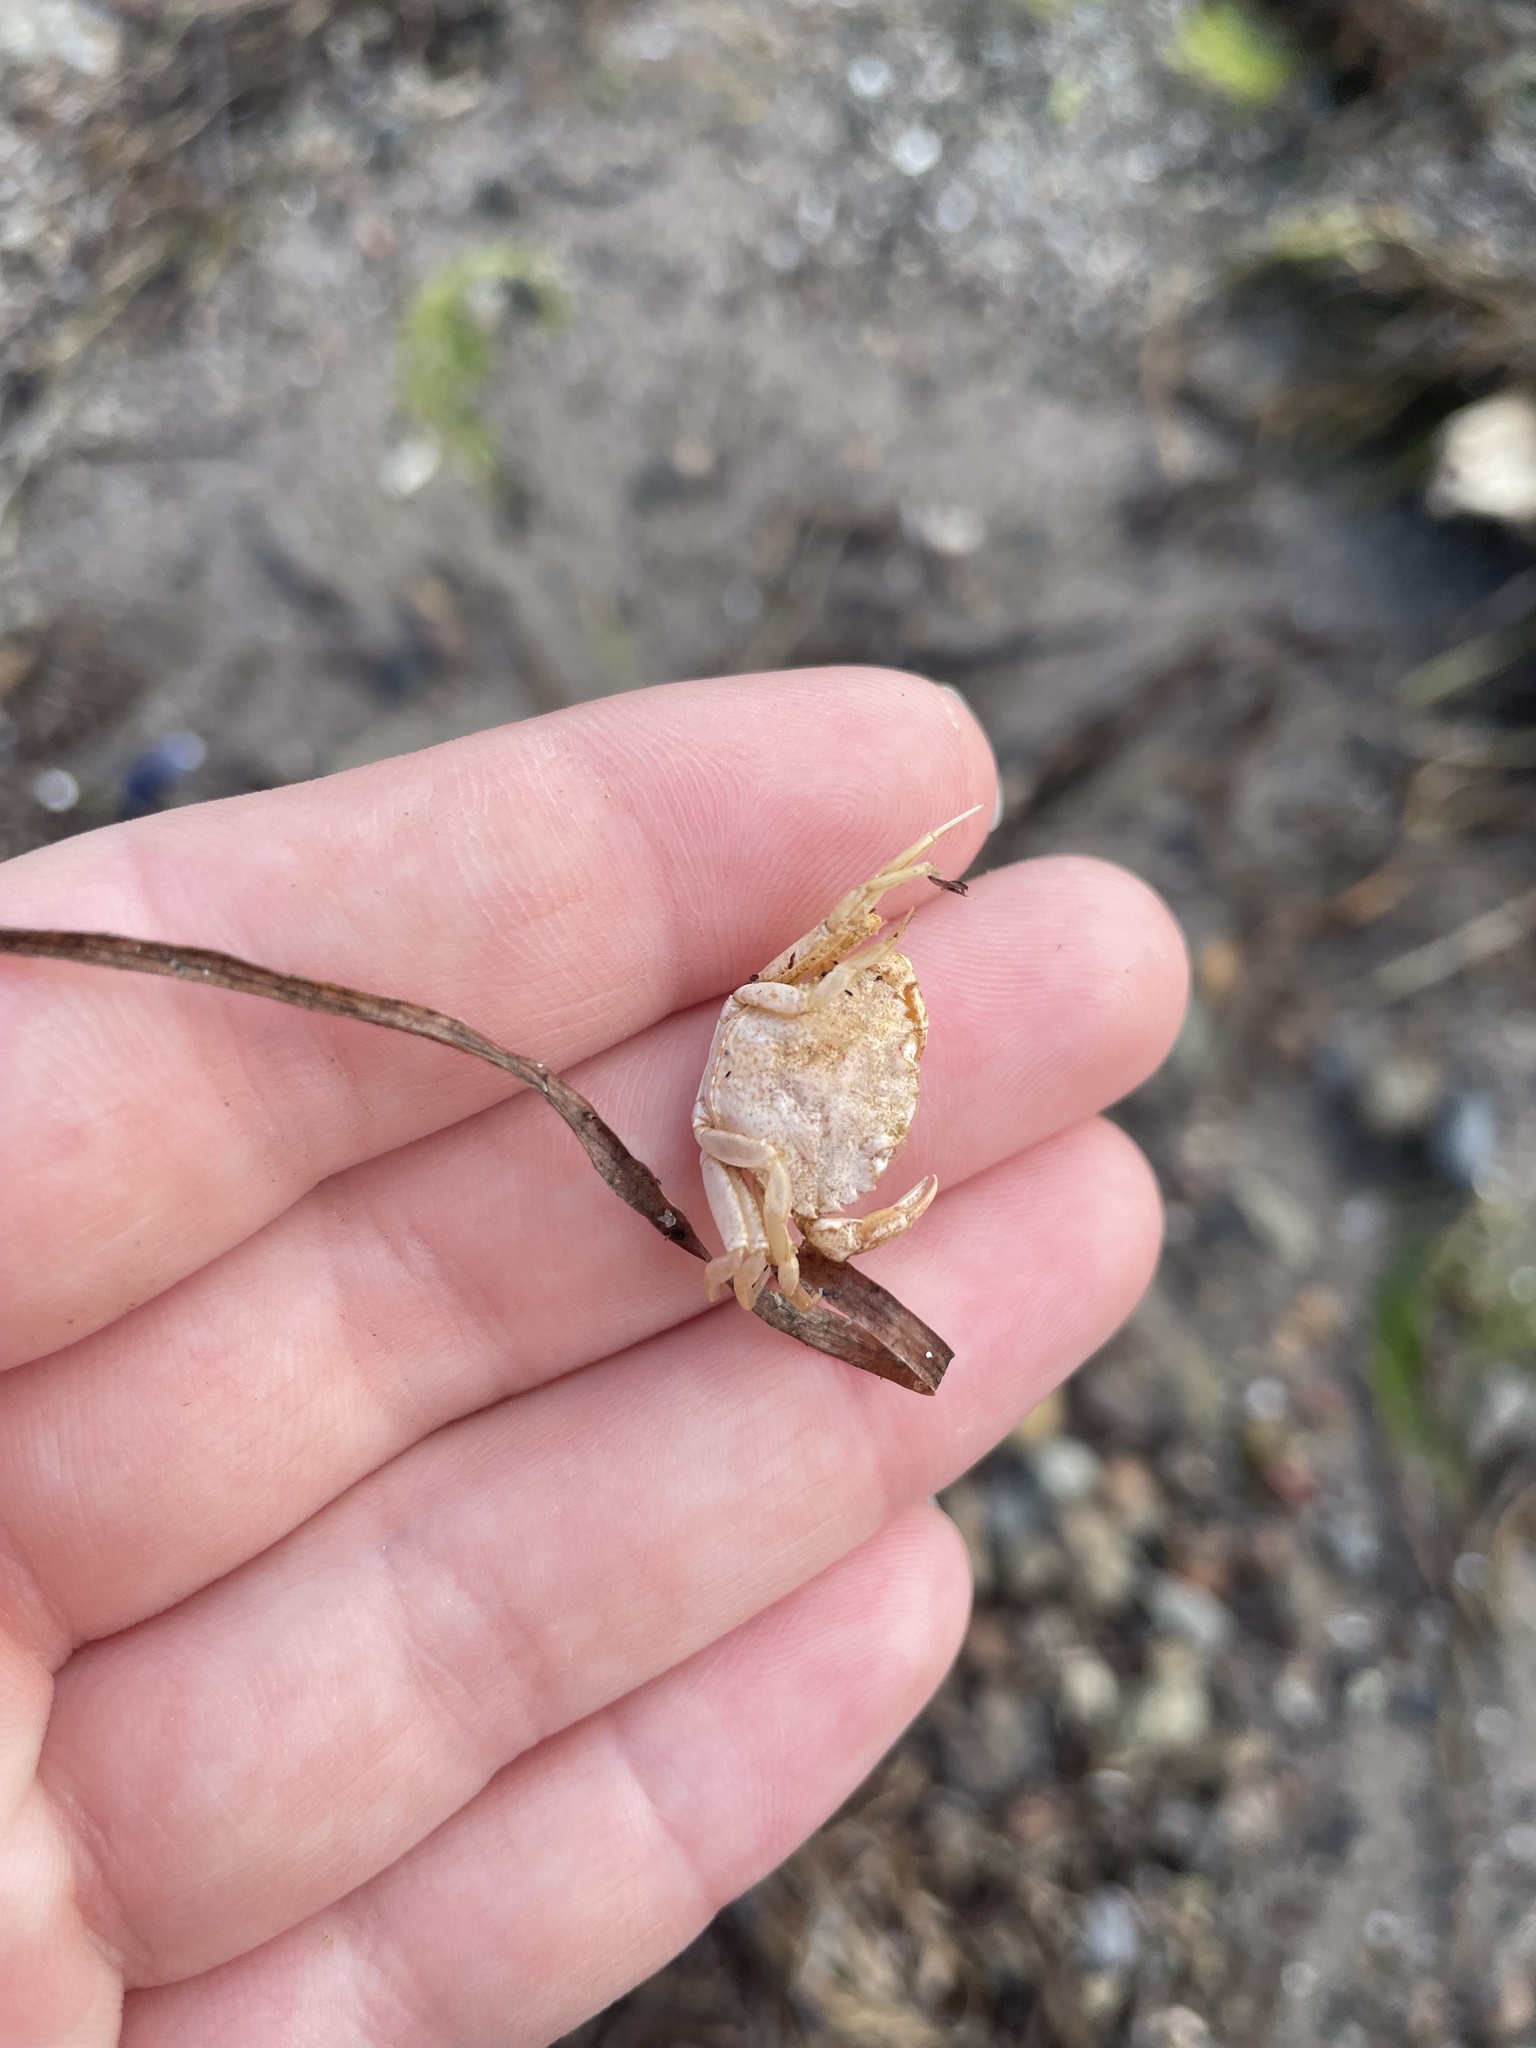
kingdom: Animalia
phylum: Arthropoda
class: Malacostraca
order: Decapoda
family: Carcinidae
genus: Carcinus
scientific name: Carcinus maenas
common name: European green crab
